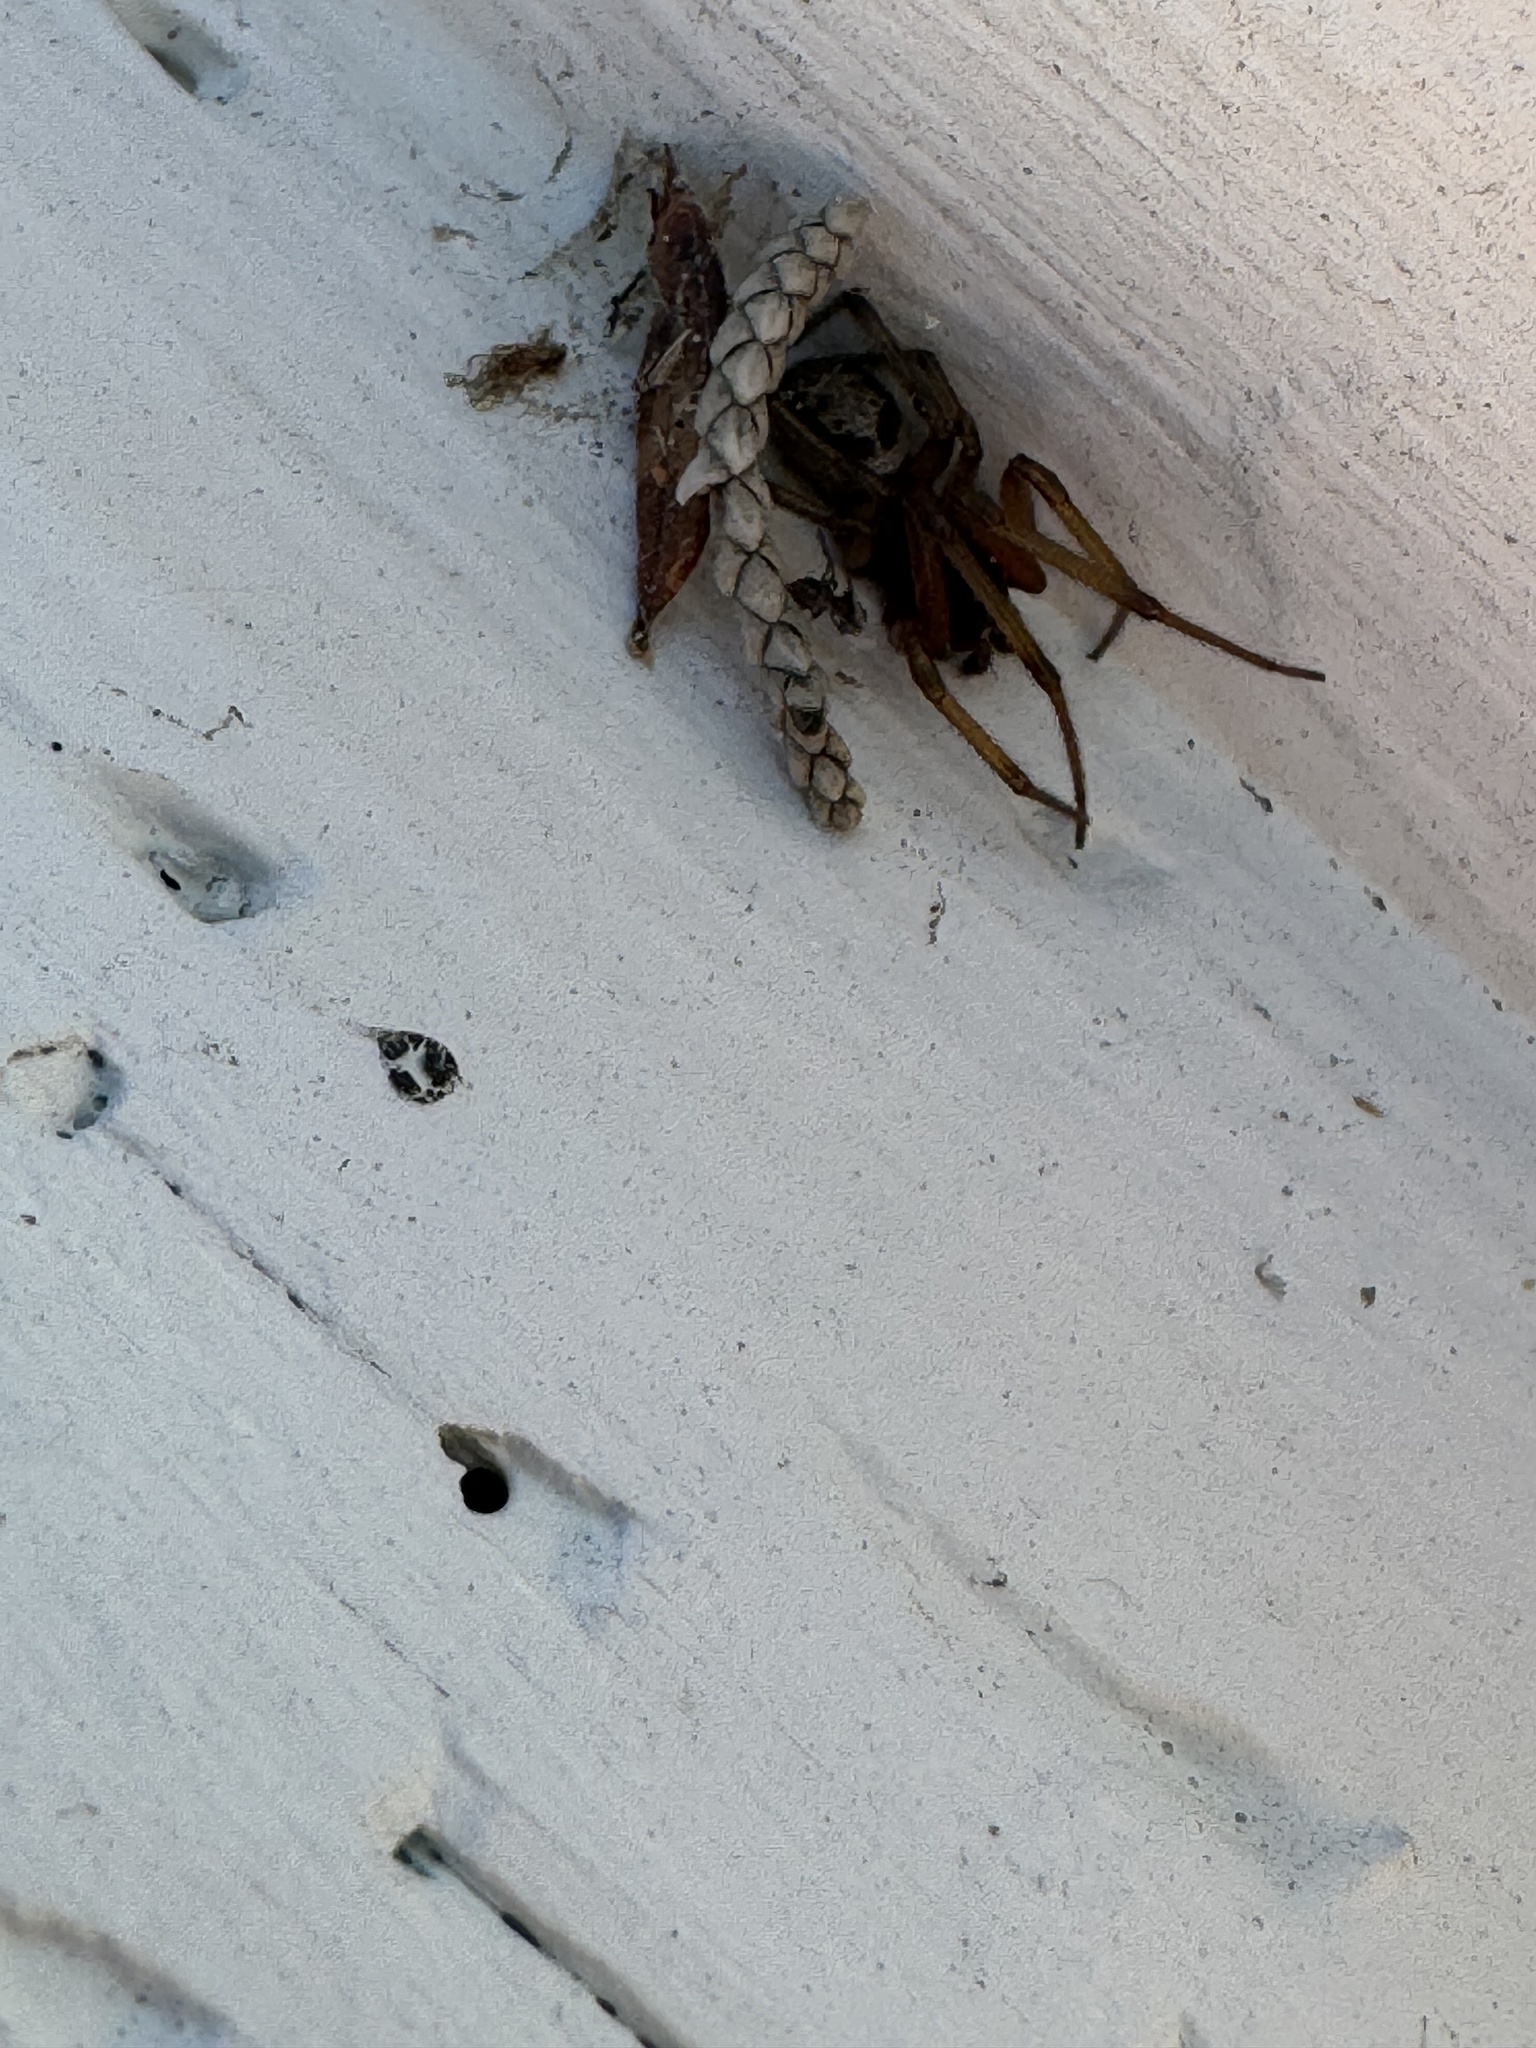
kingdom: Animalia
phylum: Arthropoda
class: Arachnida
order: Araneae
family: Theridiidae
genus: Steatoda
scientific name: Steatoda nobilis
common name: Cobweb weaver
